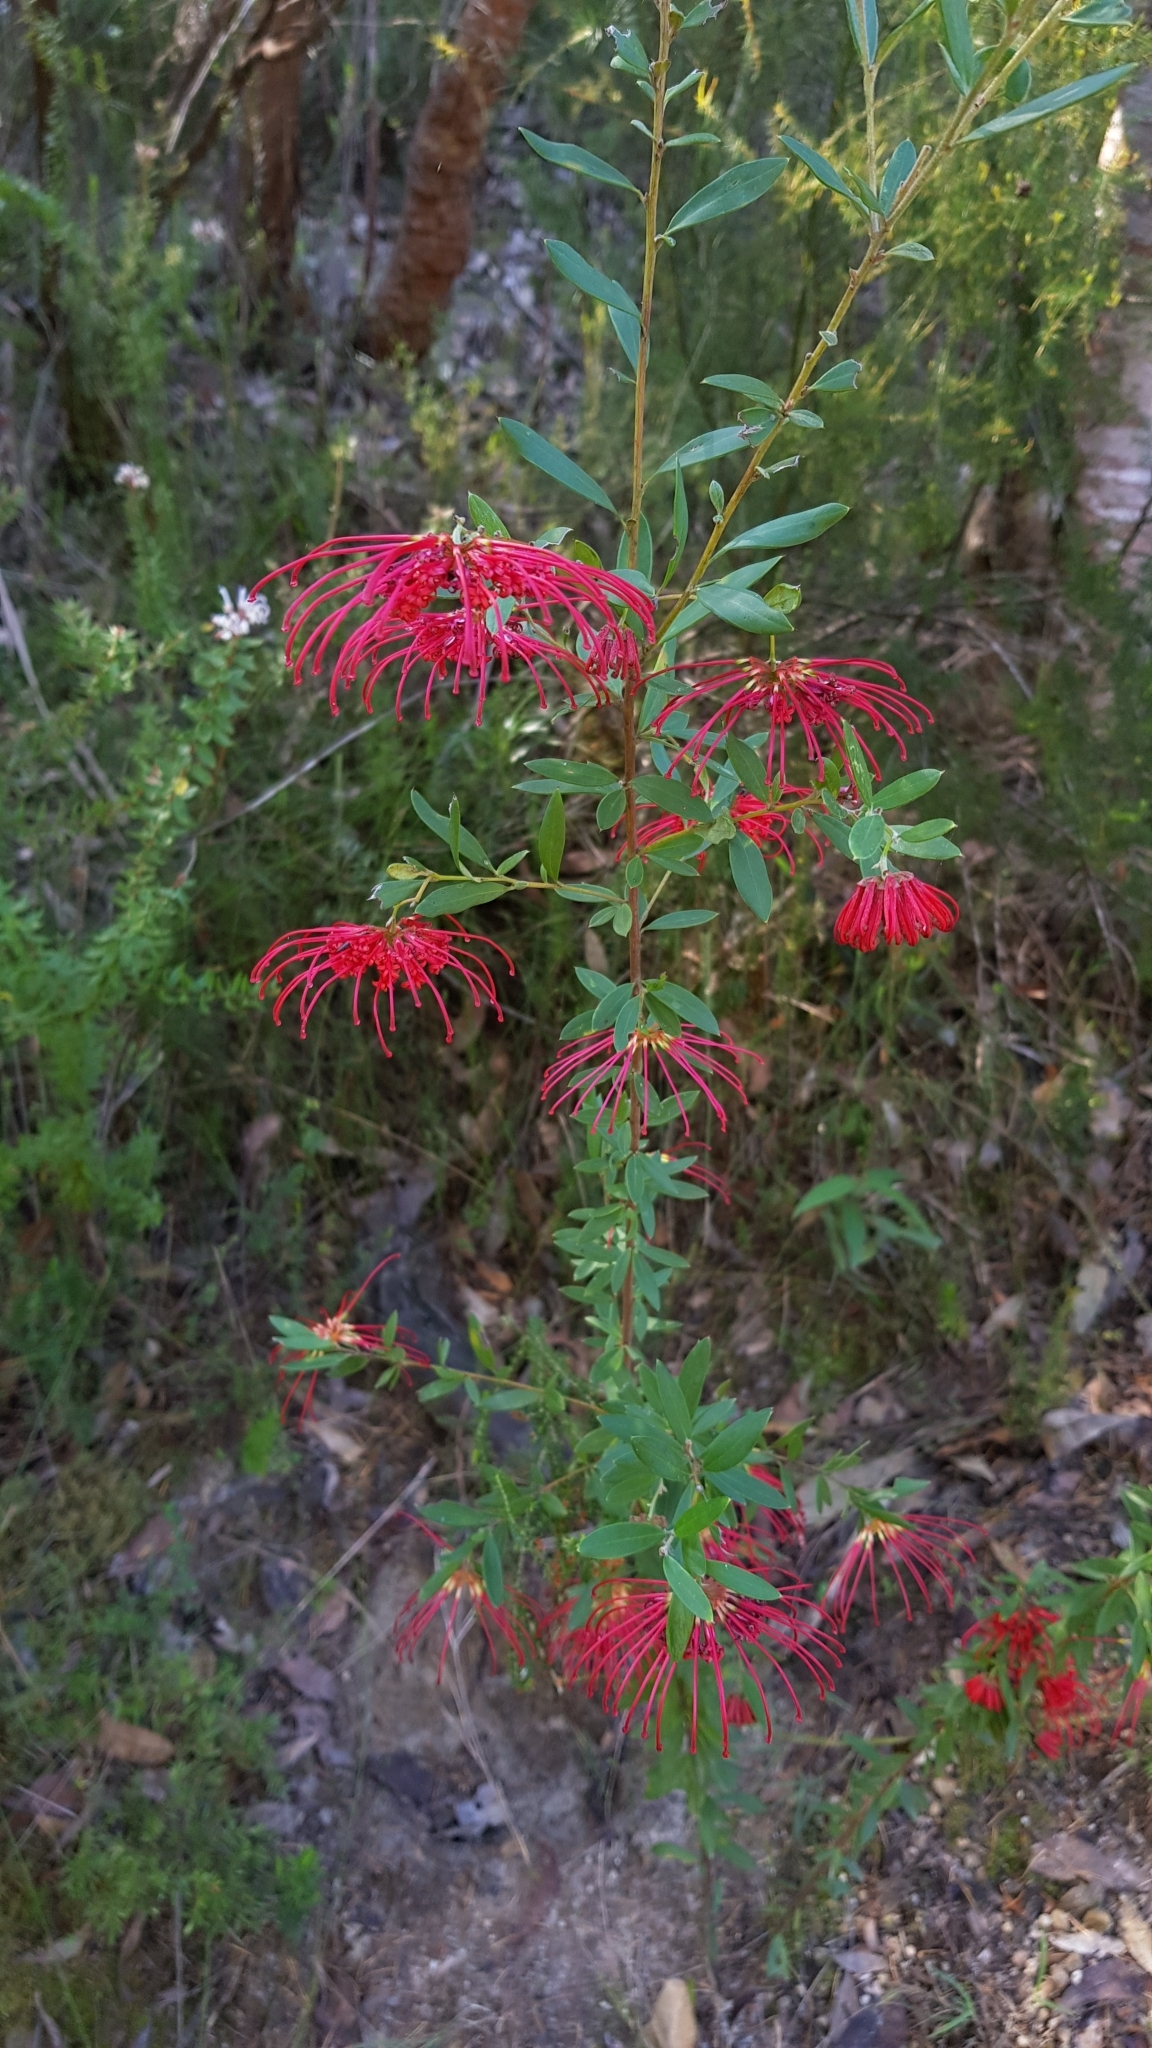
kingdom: Plantae
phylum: Tracheophyta
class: Magnoliopsida
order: Proteales
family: Proteaceae
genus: Grevillea
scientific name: Grevillea speciosa
